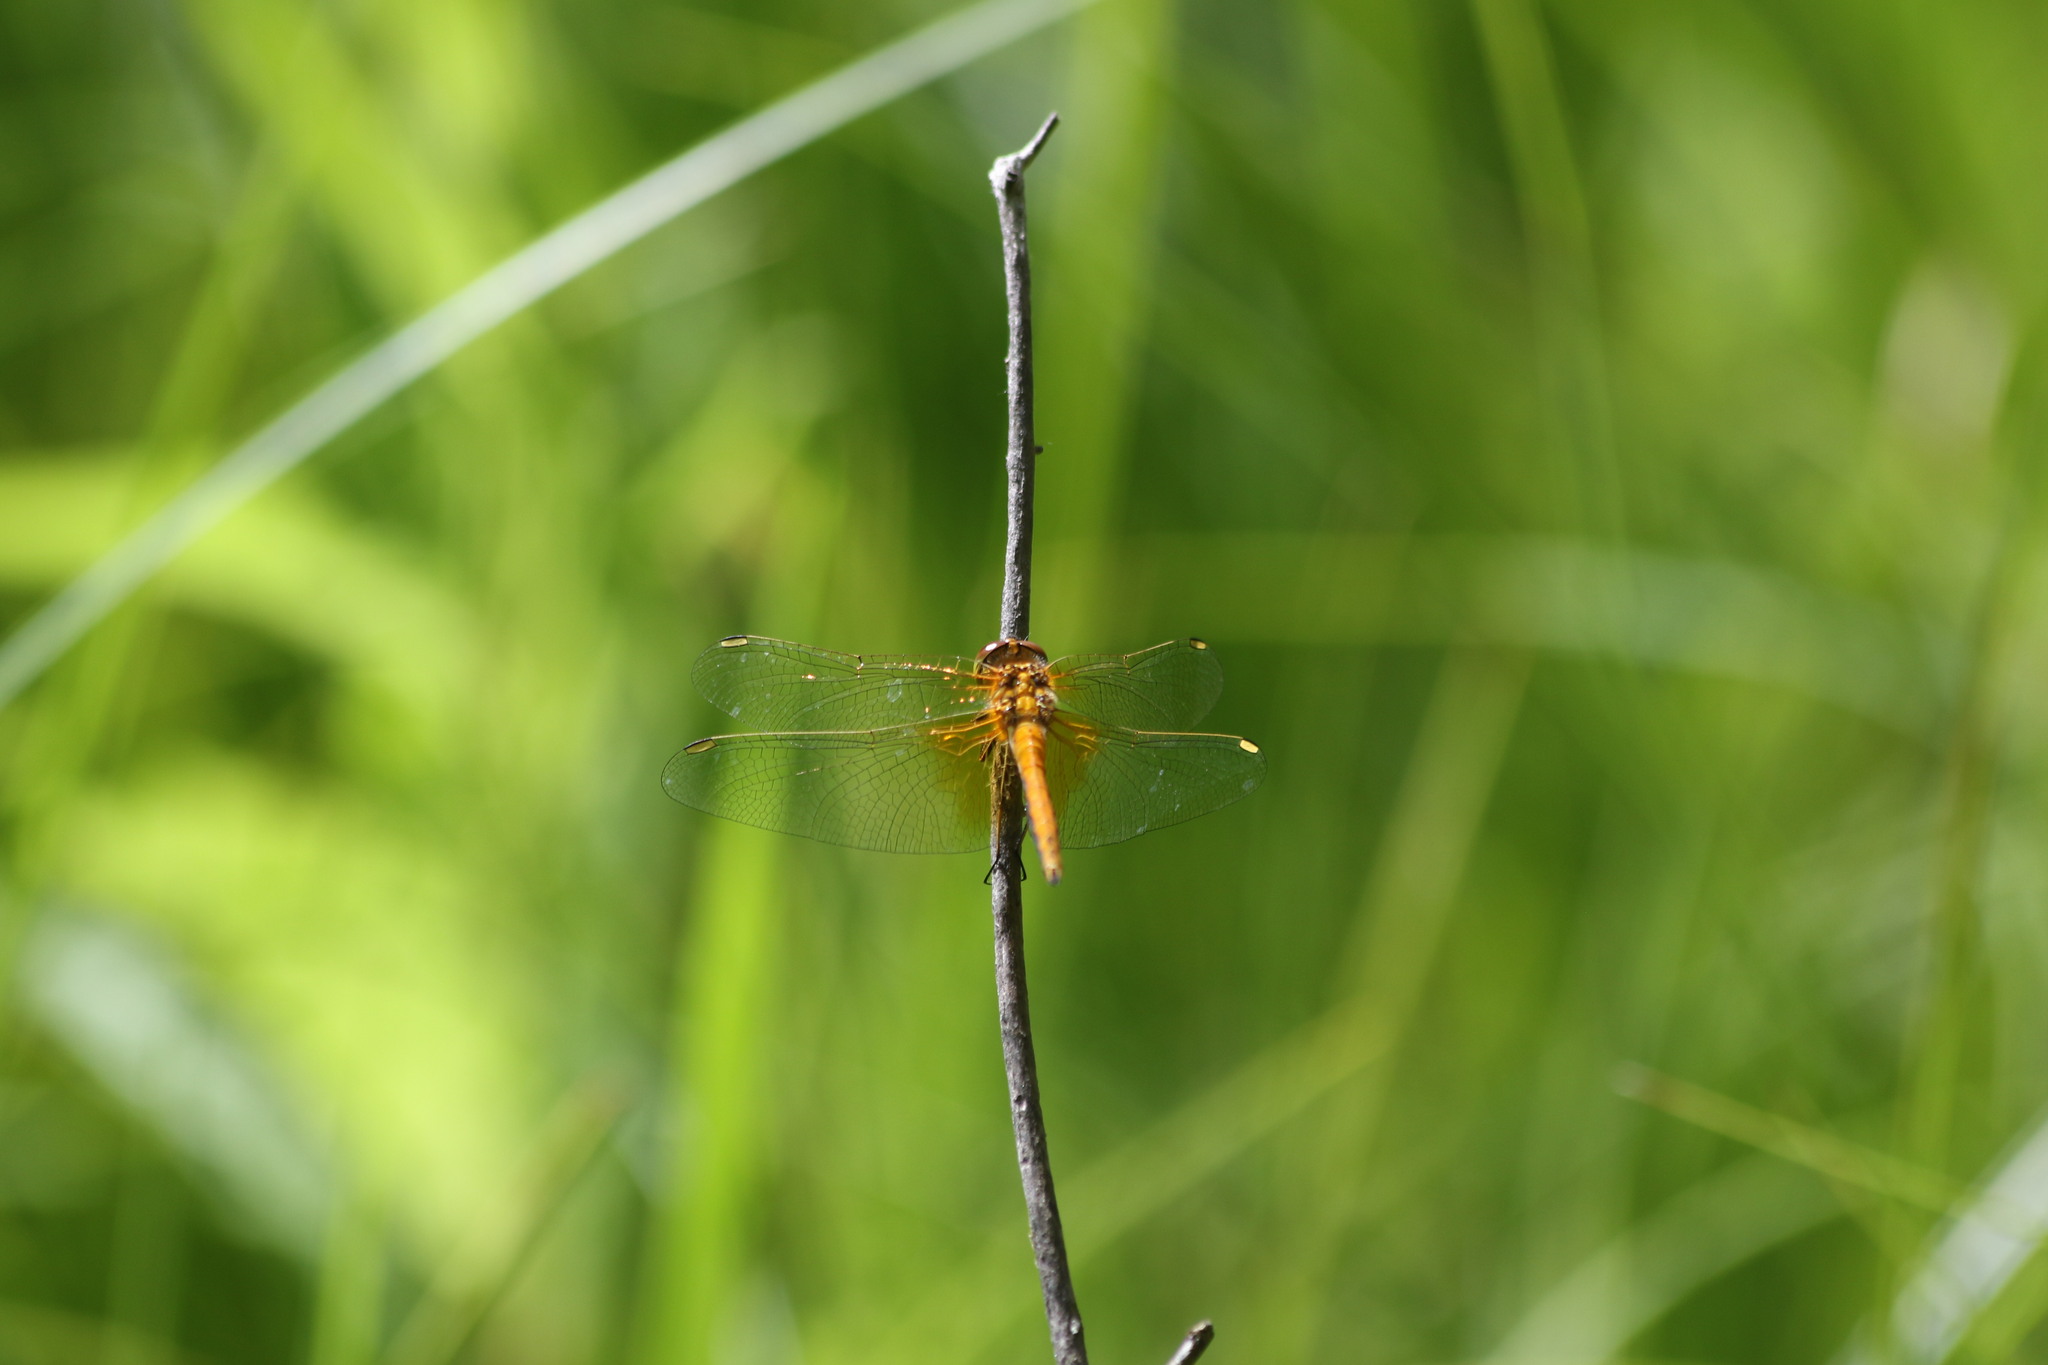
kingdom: Animalia
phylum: Arthropoda
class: Insecta
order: Odonata
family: Libellulidae
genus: Sympetrum
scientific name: Sympetrum flaveolum
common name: Yellow-winged darter
